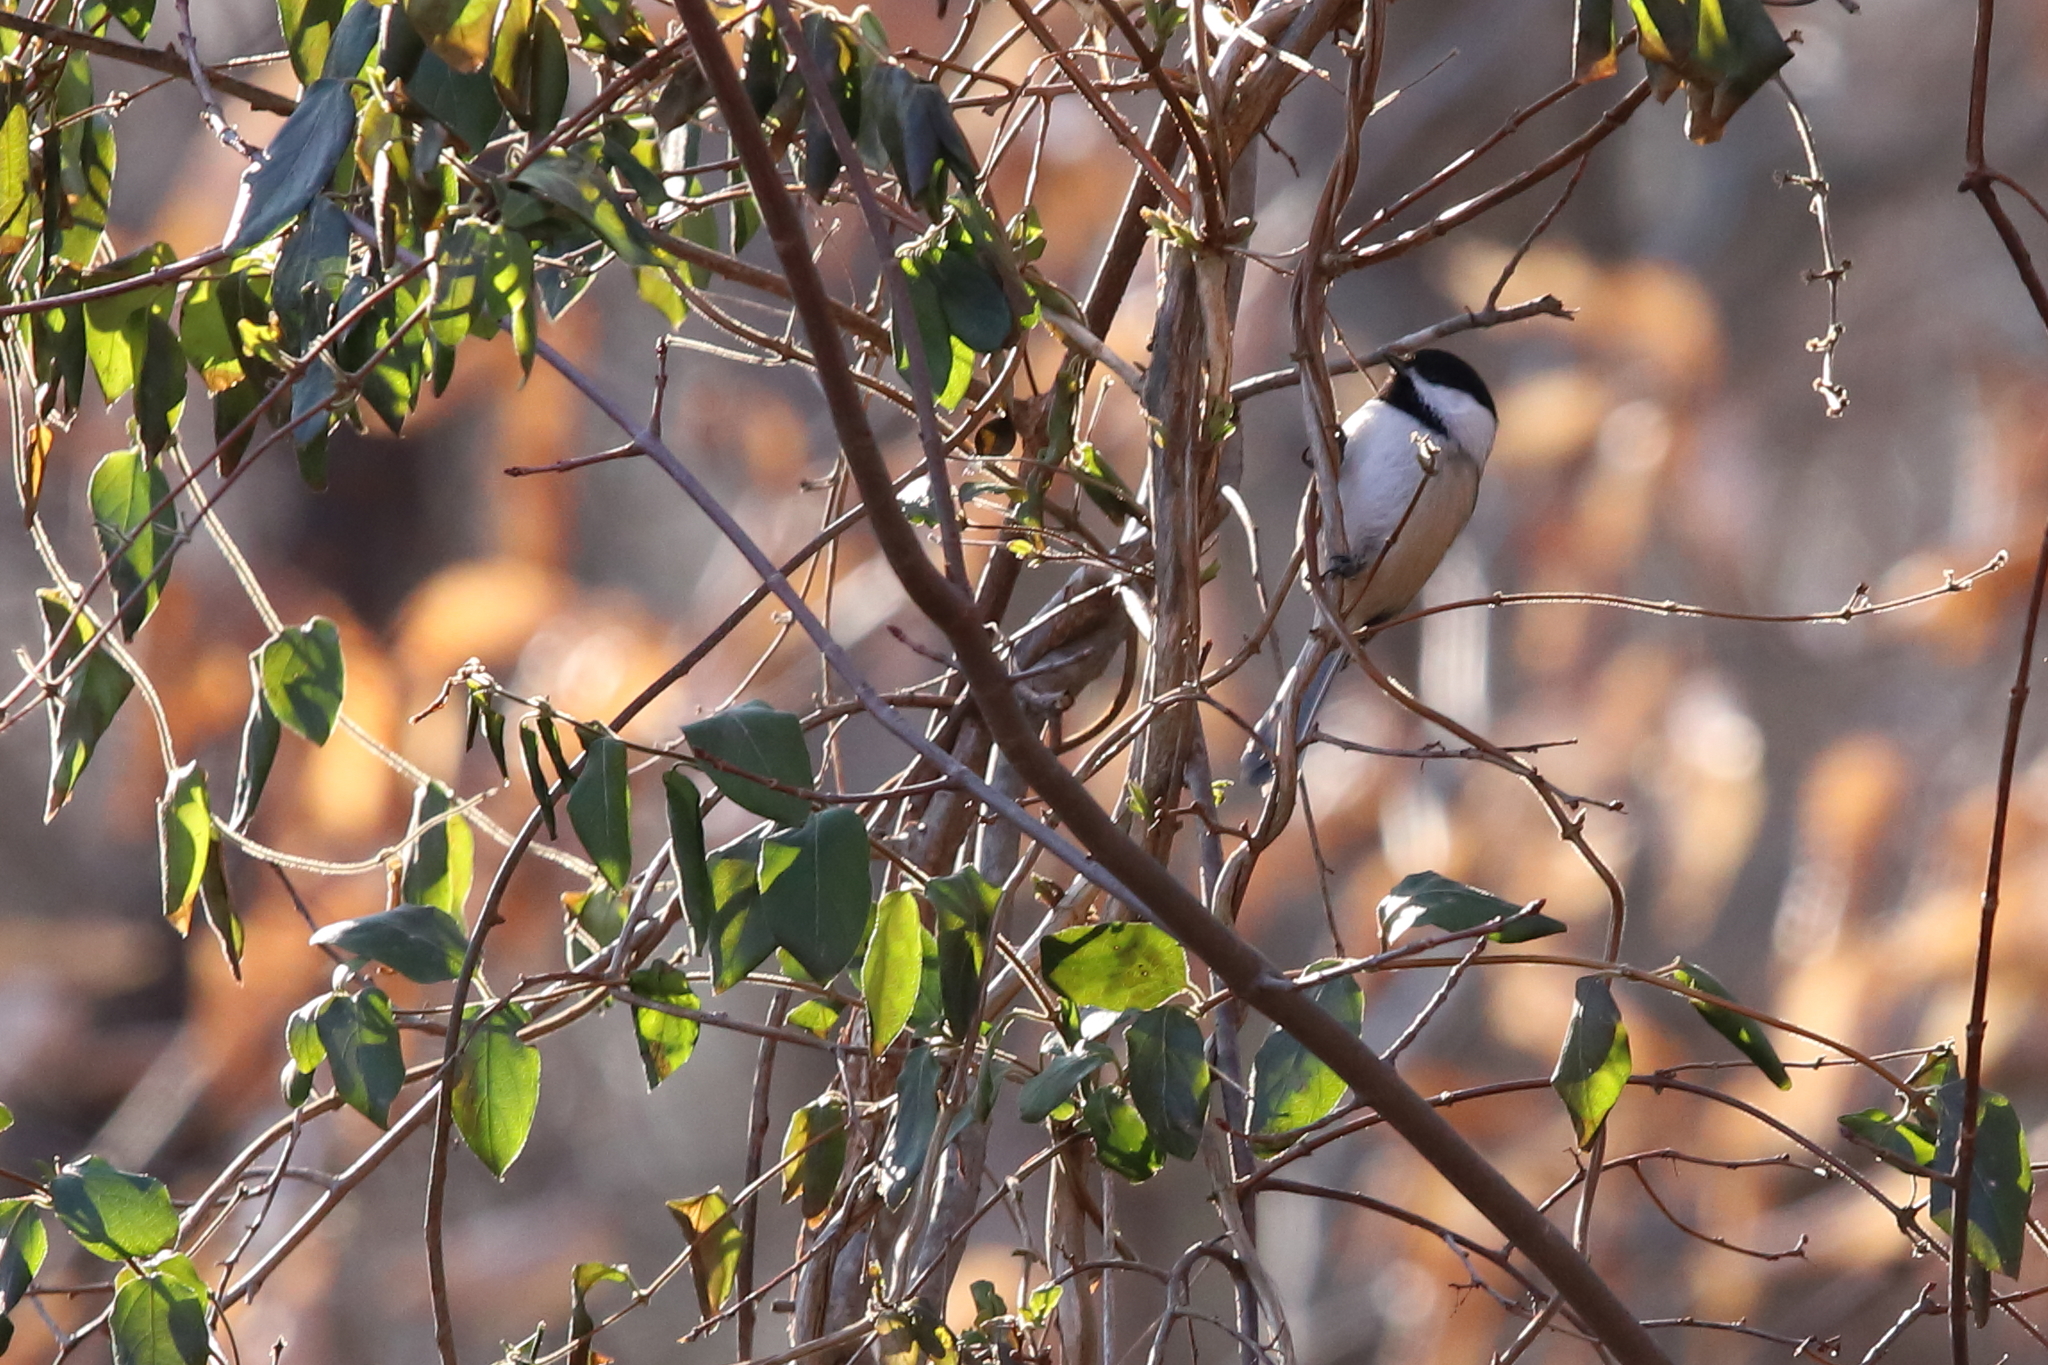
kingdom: Animalia
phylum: Chordata
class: Aves
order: Passeriformes
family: Paridae
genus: Poecile
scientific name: Poecile atricapillus
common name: Black-capped chickadee
